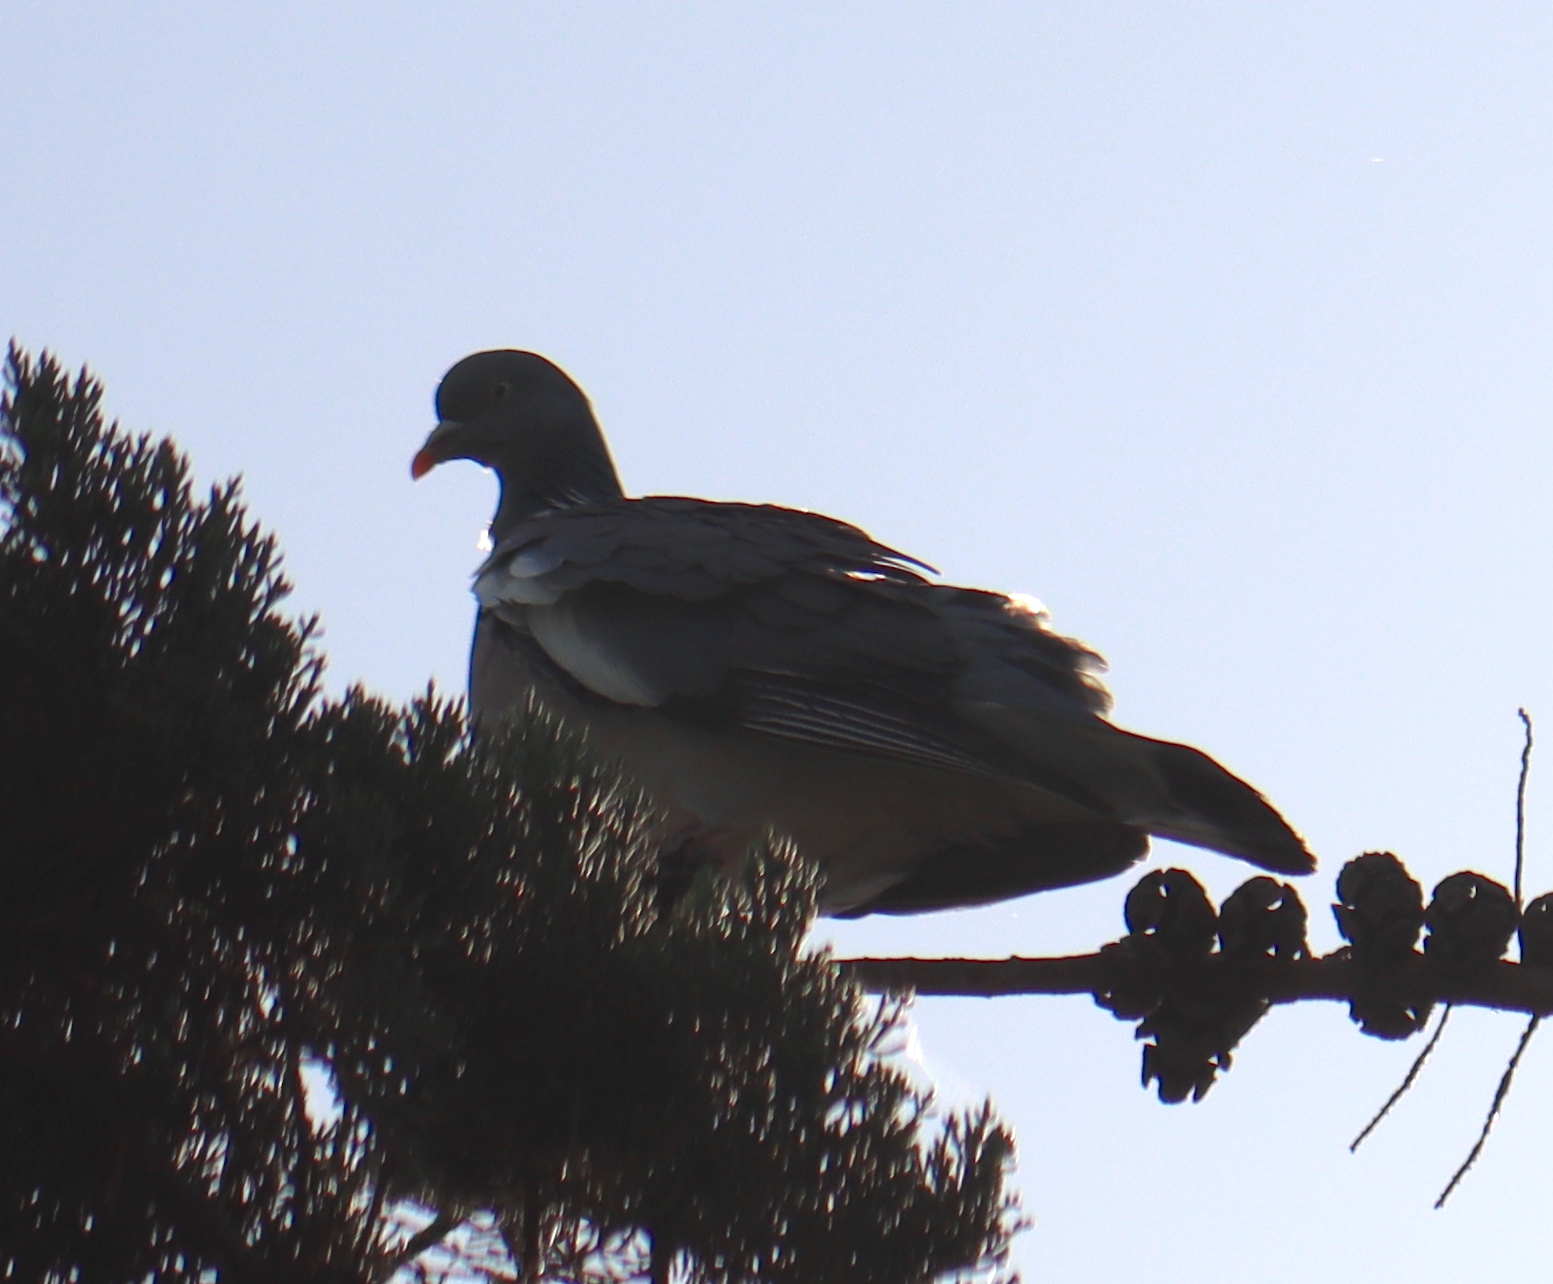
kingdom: Animalia
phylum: Chordata
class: Aves
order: Columbiformes
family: Columbidae
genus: Columba
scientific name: Columba palumbus
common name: Common wood pigeon
